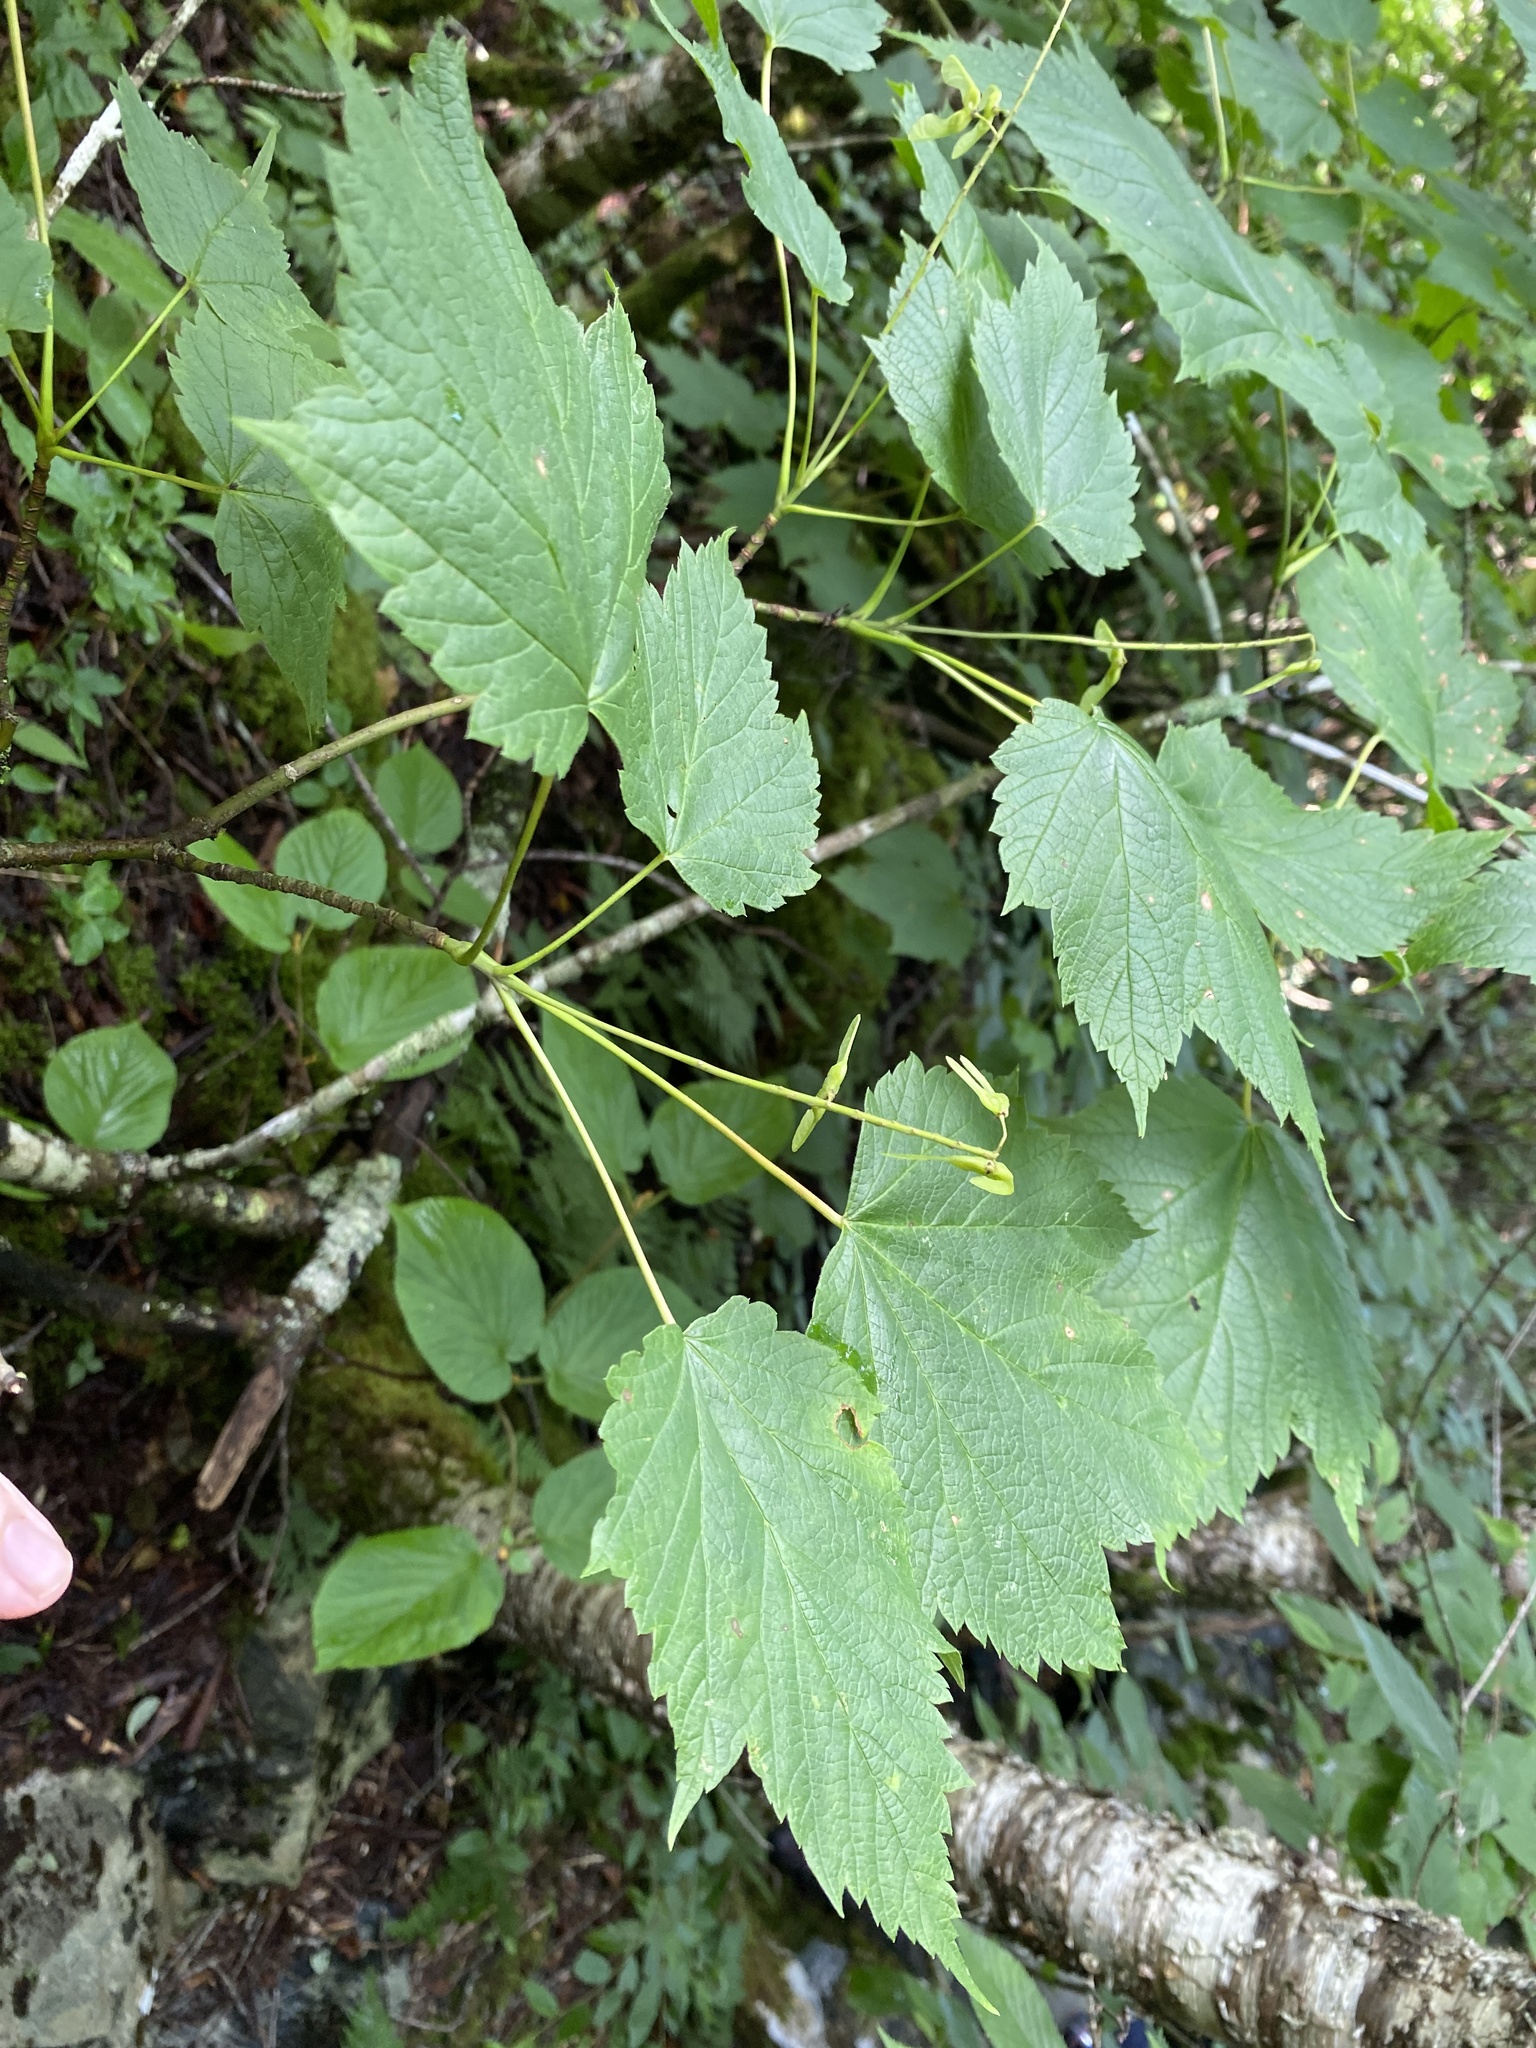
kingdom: Plantae
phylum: Tracheophyta
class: Magnoliopsida
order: Sapindales
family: Sapindaceae
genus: Acer
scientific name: Acer spicatum
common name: Mountain maple
